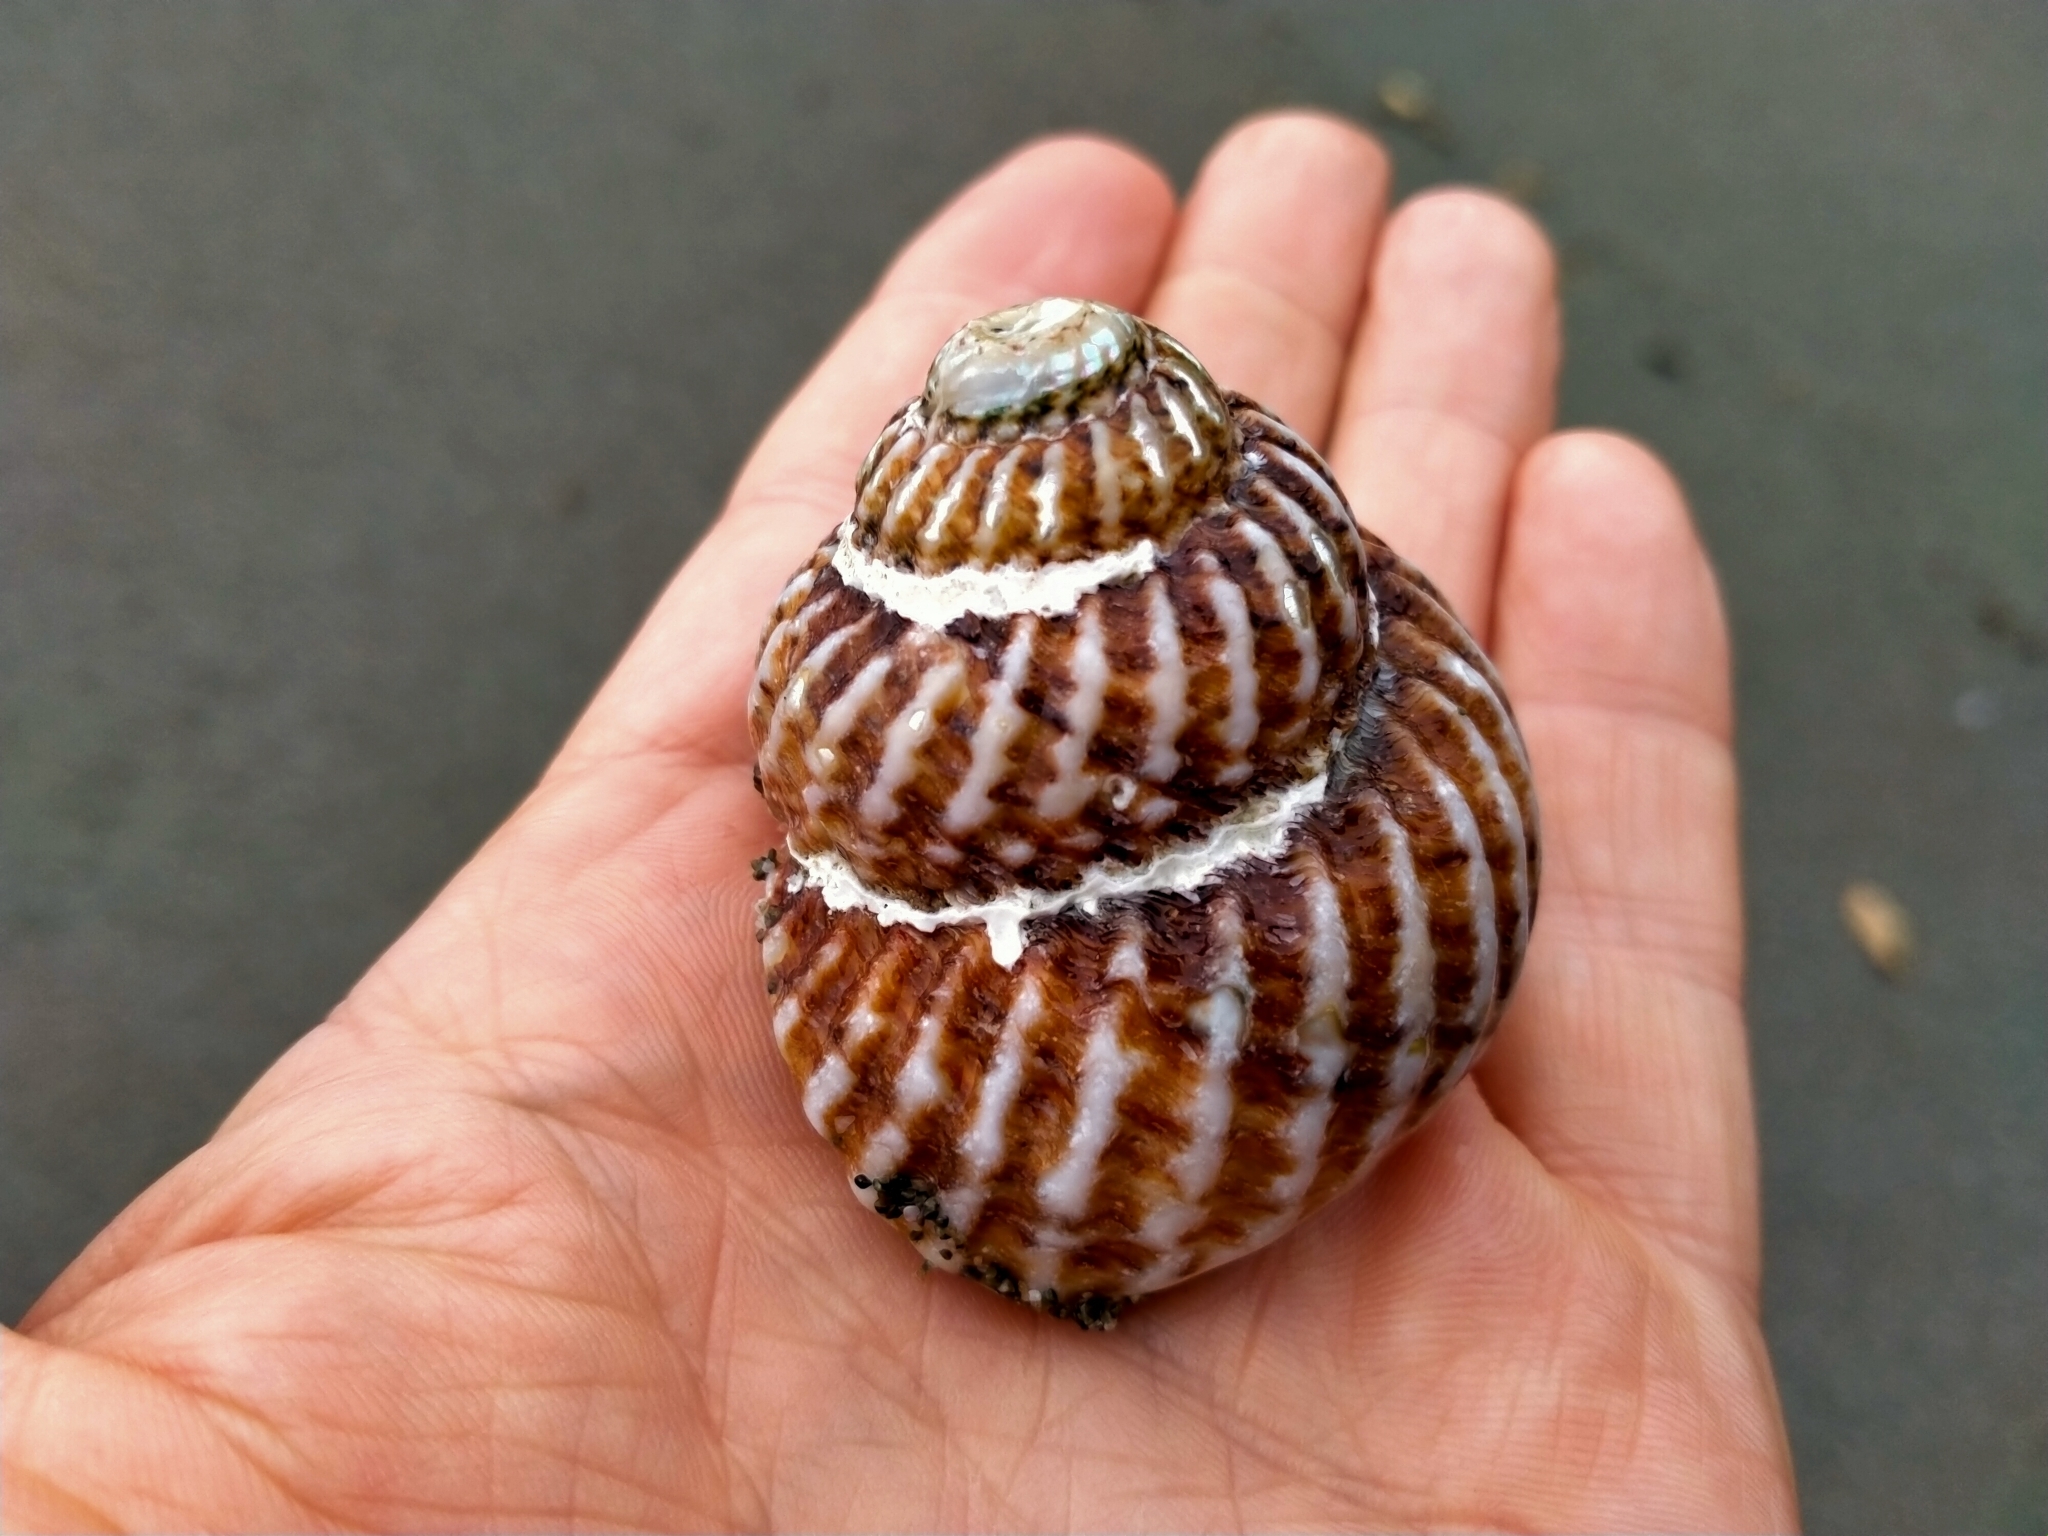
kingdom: Animalia
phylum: Mollusca
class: Gastropoda
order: Trochida
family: Turbinidae
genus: Cookia
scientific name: Cookia sulcata
